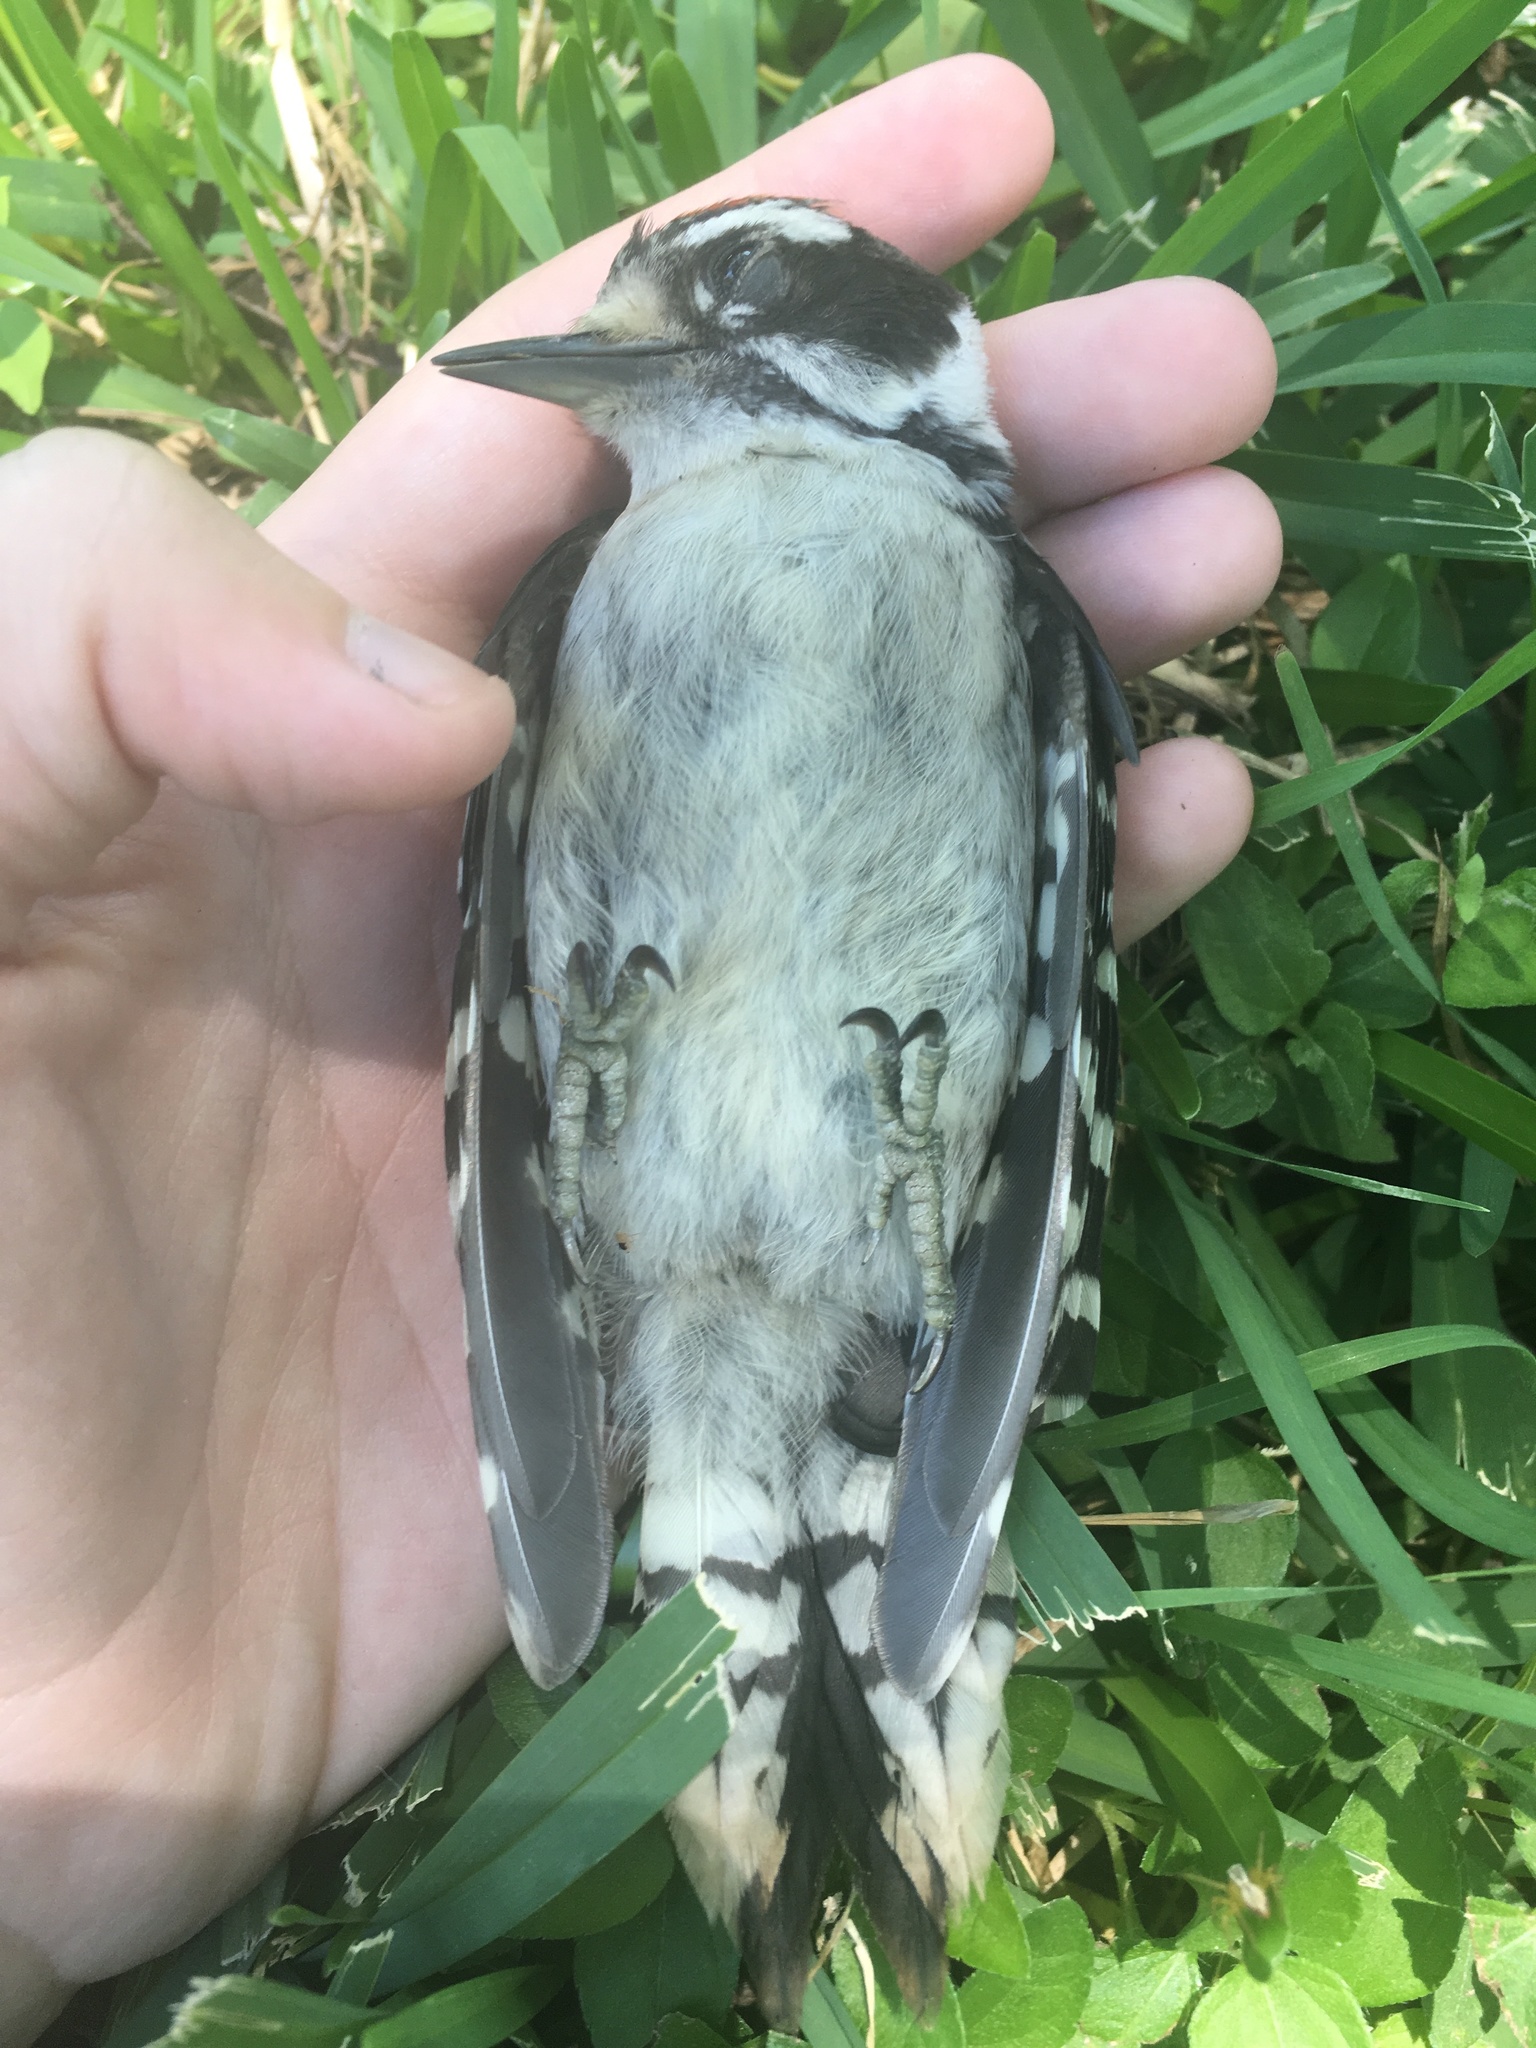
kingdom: Animalia
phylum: Chordata
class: Aves
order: Piciformes
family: Picidae
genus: Dryobates
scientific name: Dryobates pubescens
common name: Downy woodpecker
